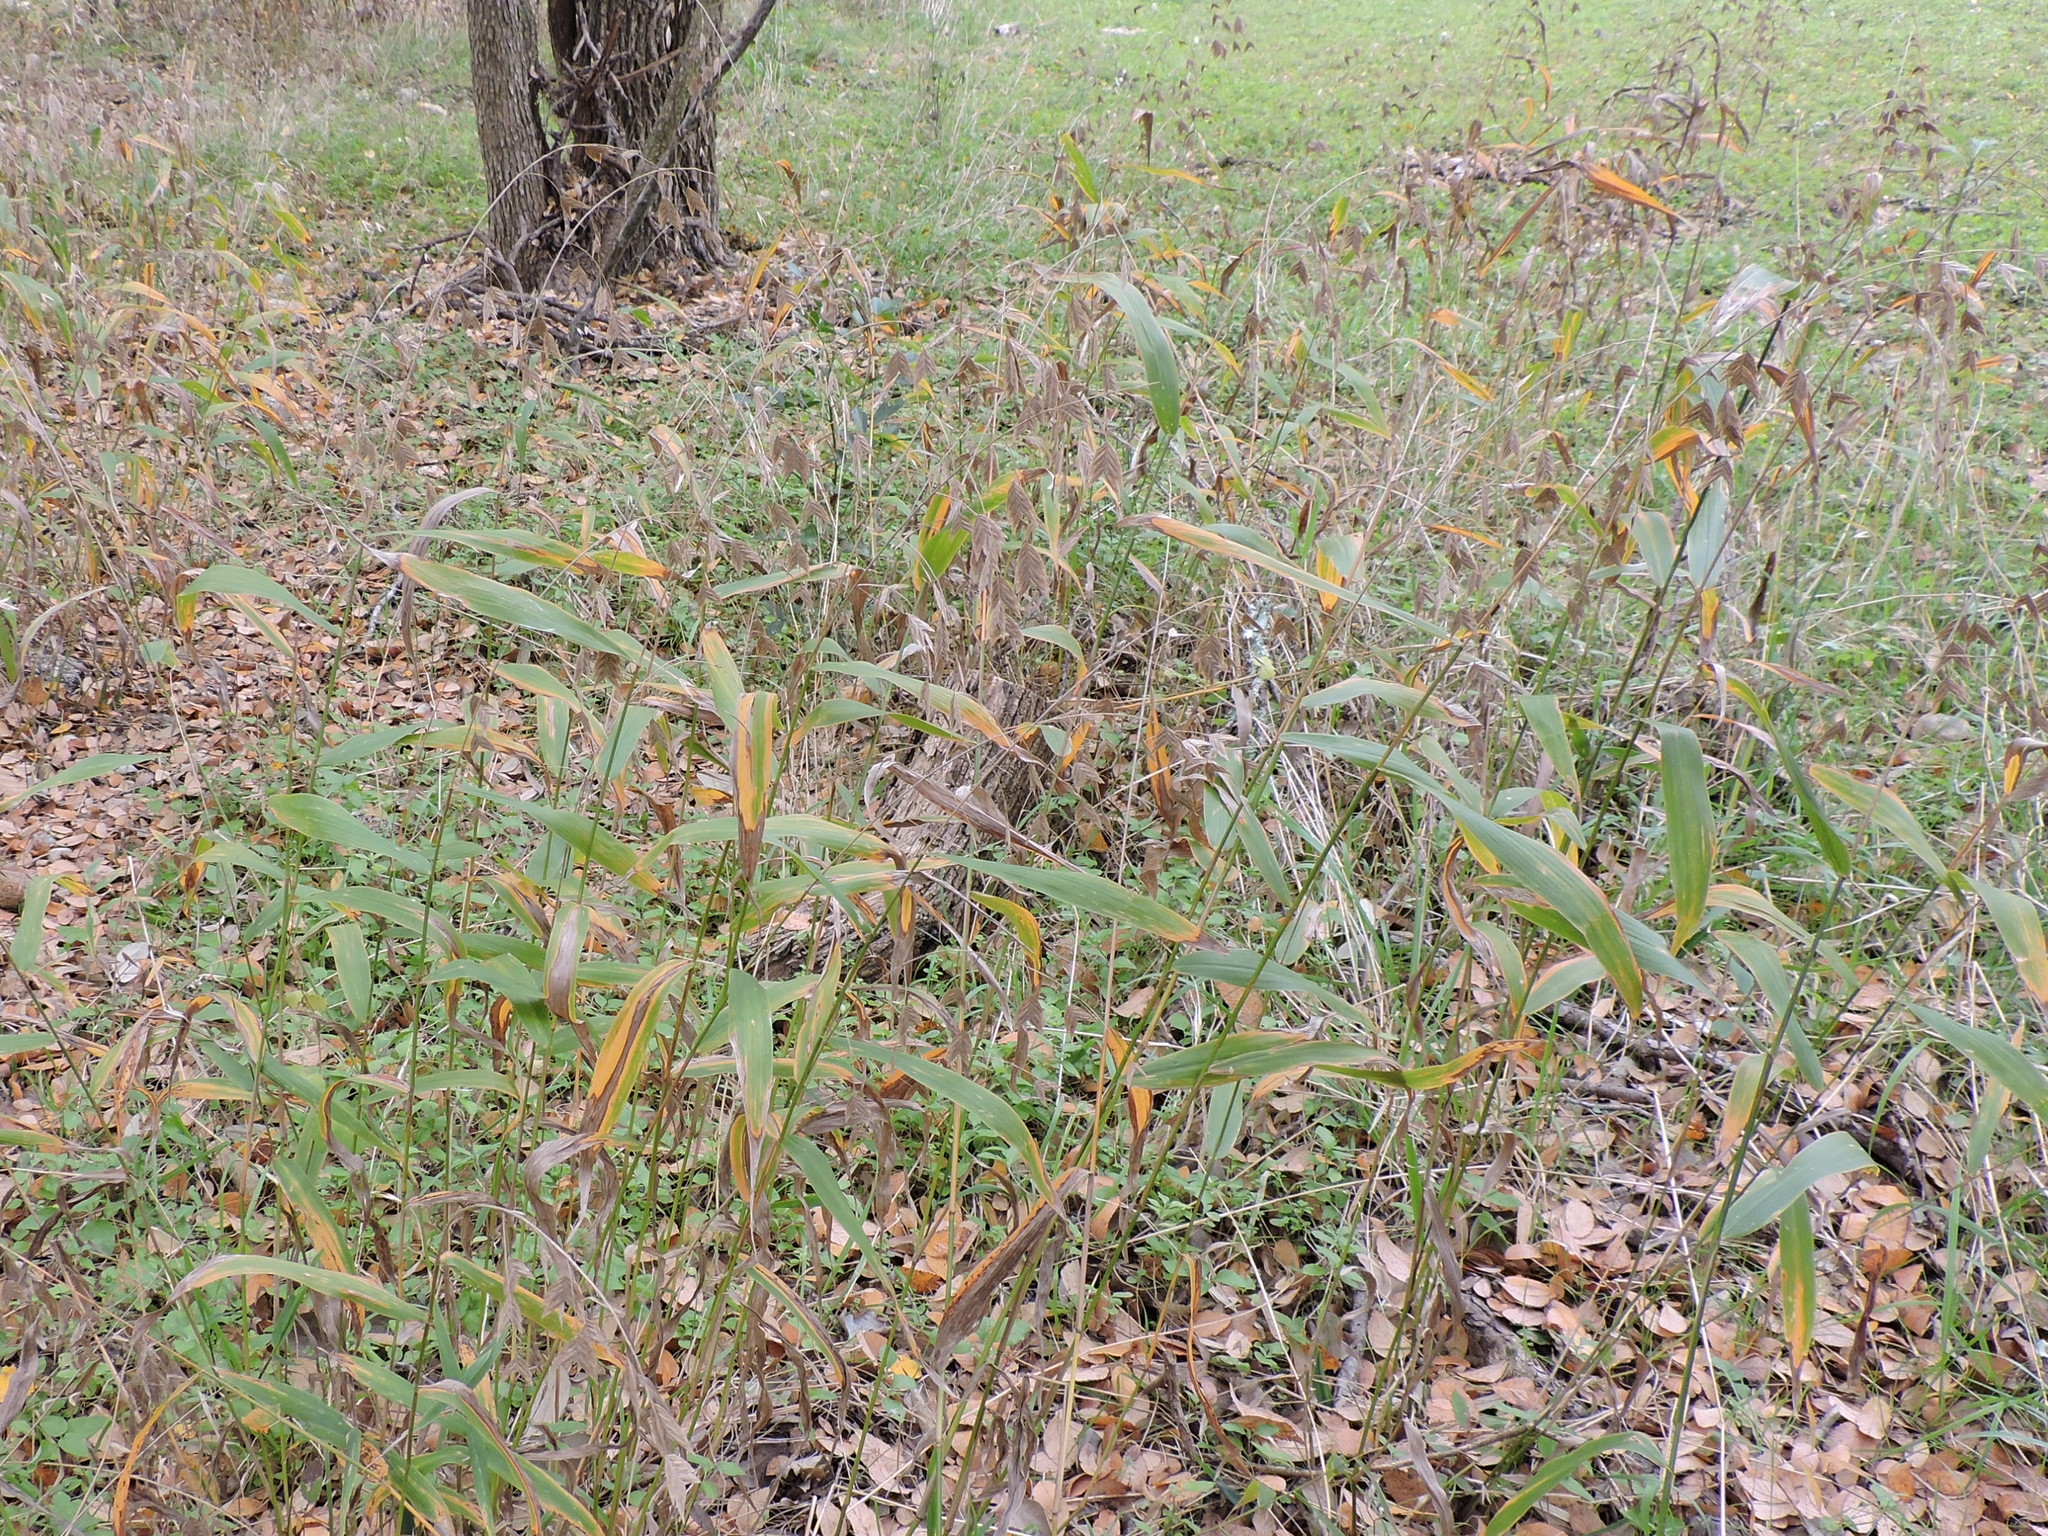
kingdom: Plantae
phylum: Tracheophyta
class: Liliopsida
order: Poales
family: Poaceae
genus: Chasmanthium
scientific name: Chasmanthium latifolium
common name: Broad-leaved chasmanthium
